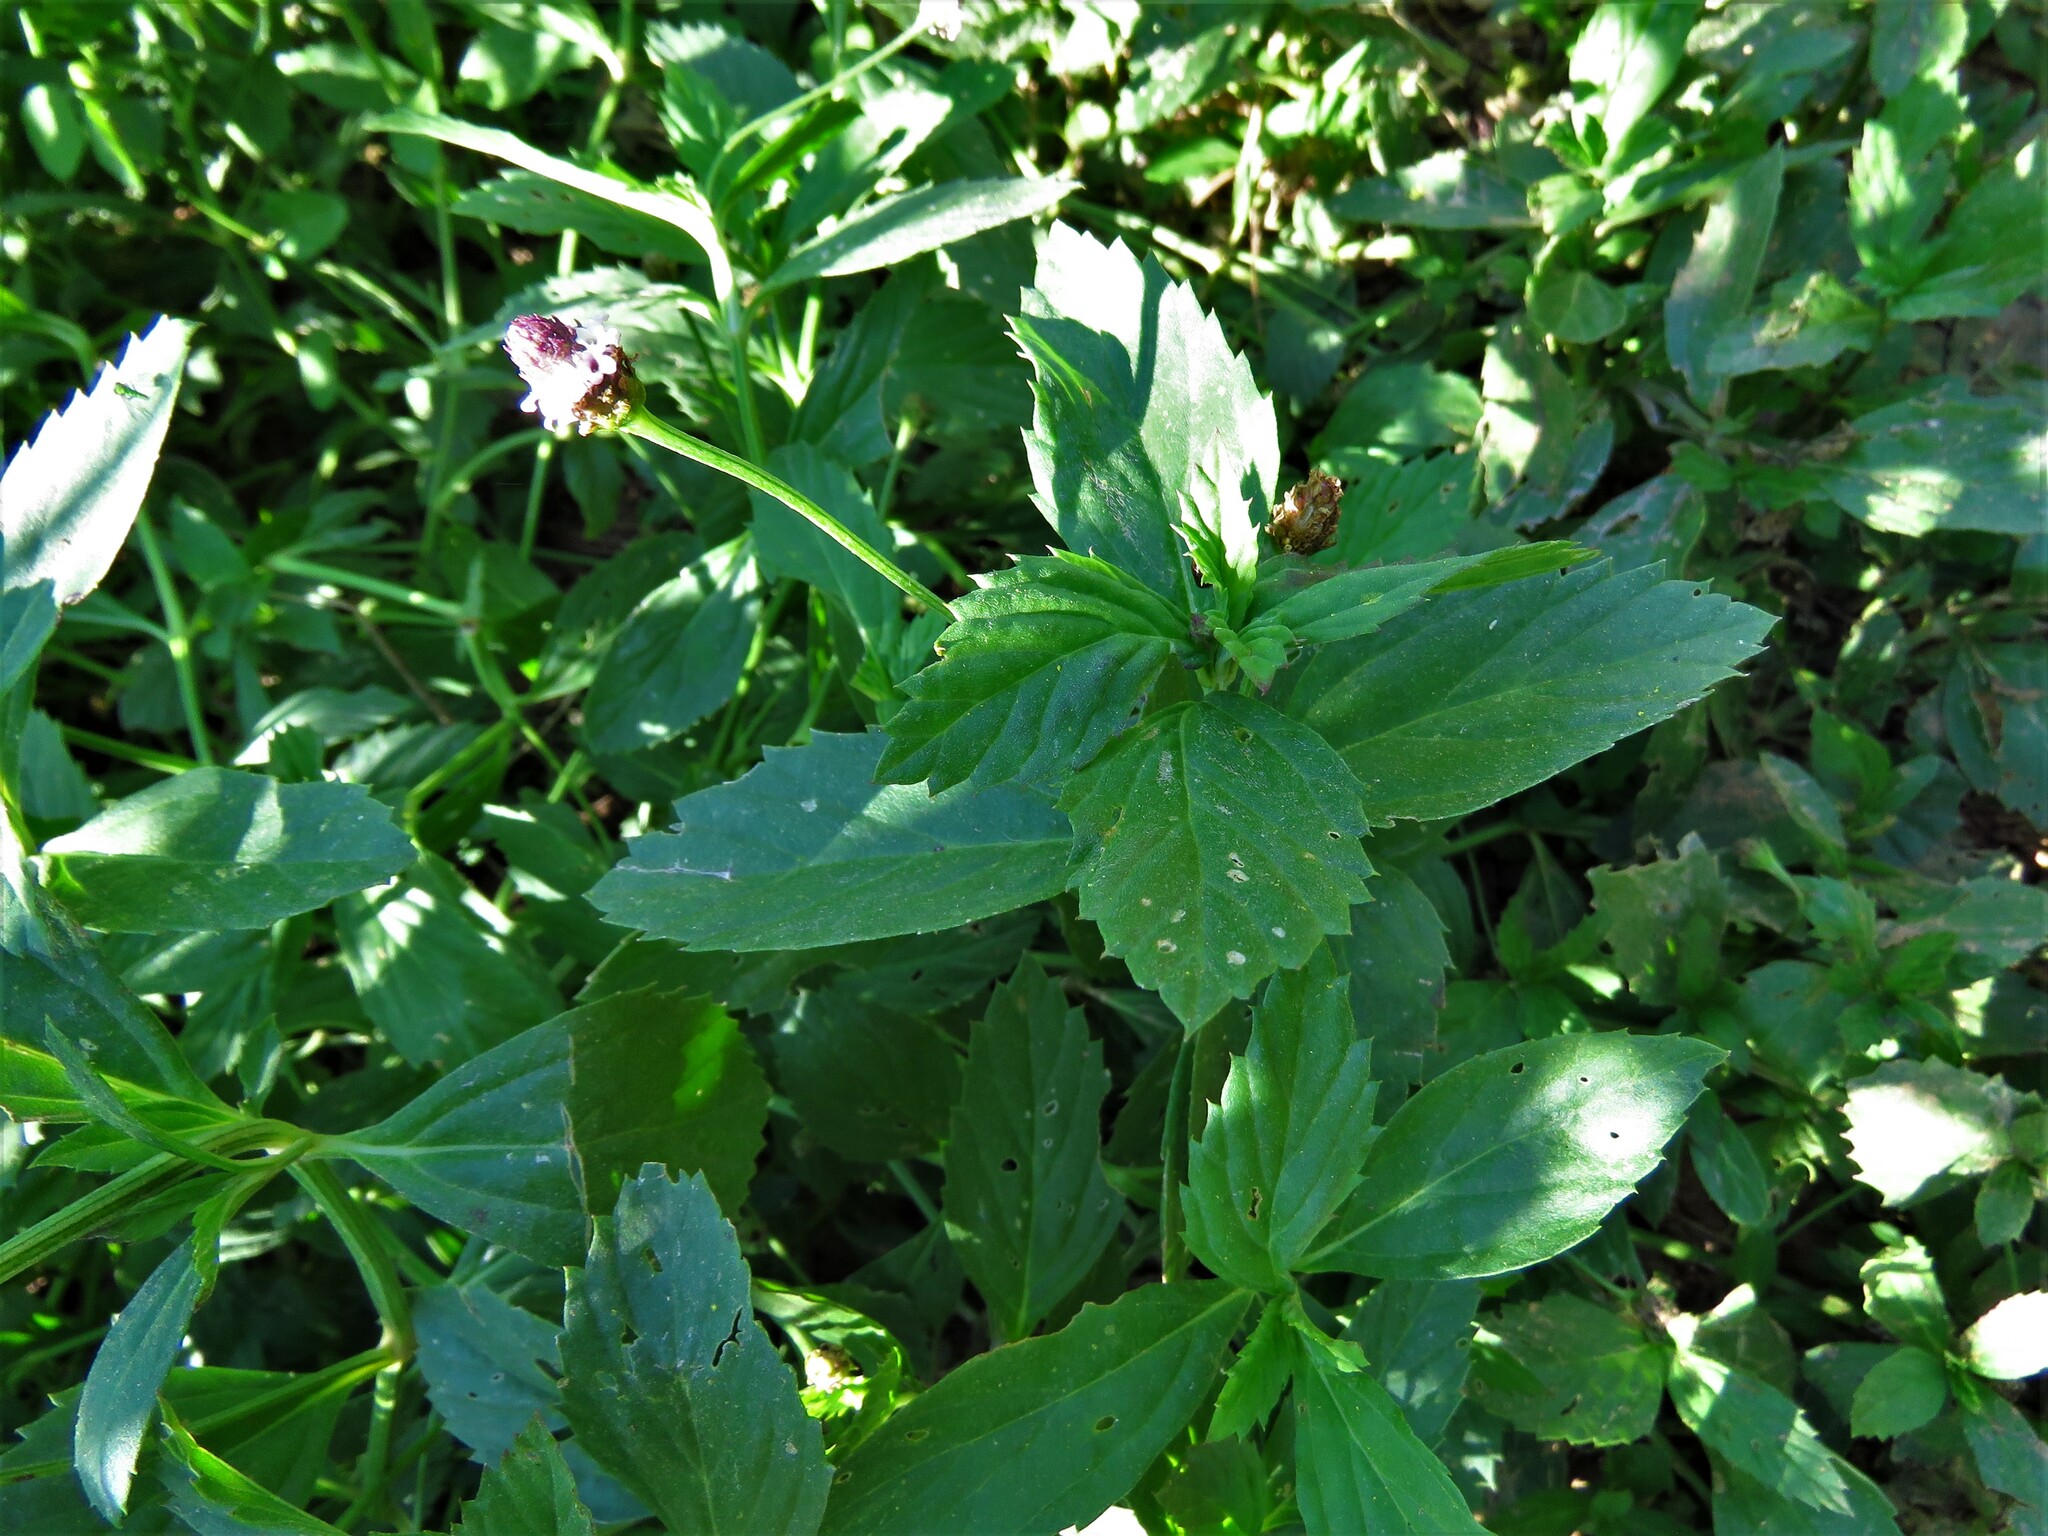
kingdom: Plantae
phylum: Tracheophyta
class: Magnoliopsida
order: Lamiales
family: Verbenaceae
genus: Phyla
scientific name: Phyla lanceolata
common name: Northern fogfruit
